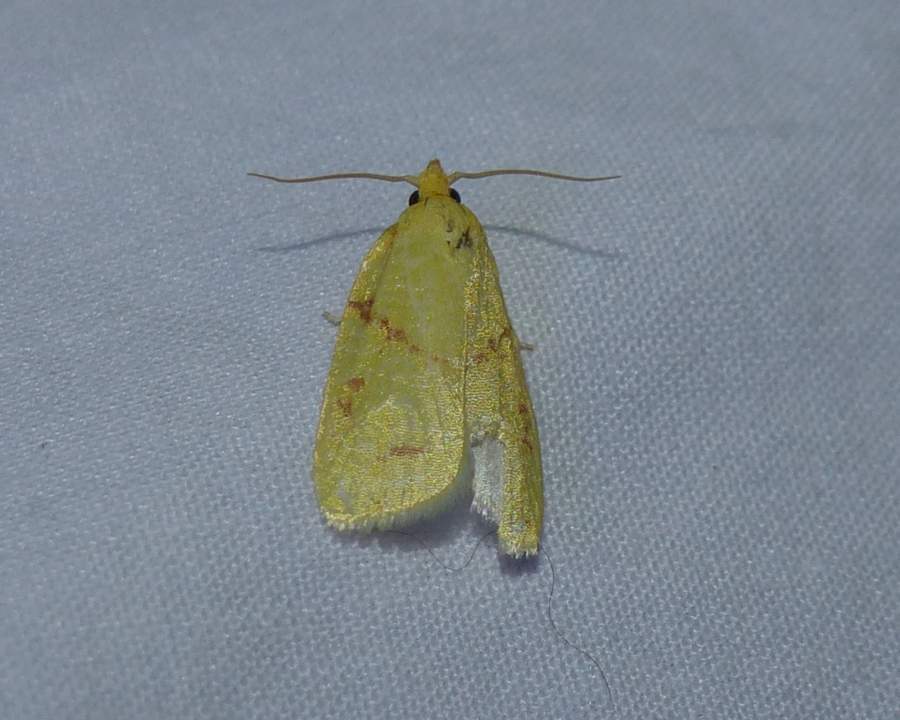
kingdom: Animalia
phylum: Arthropoda
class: Insecta
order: Lepidoptera
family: Tortricidae
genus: Cenopis
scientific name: Cenopis pettitana
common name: Maple-basswood leafroller moth
